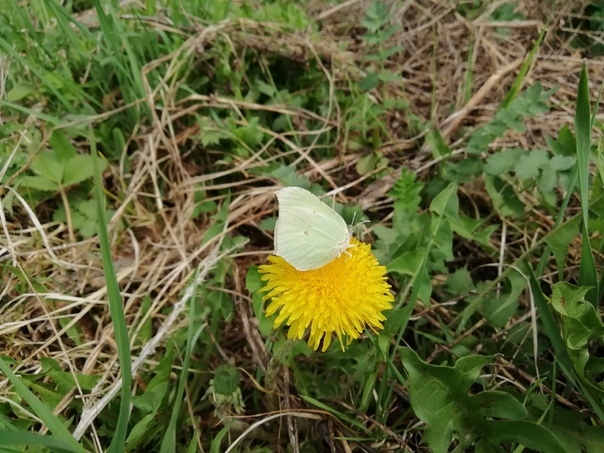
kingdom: Animalia
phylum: Arthropoda
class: Insecta
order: Lepidoptera
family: Pieridae
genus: Gonepteryx
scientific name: Gonepteryx rhamni
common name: Brimstone
